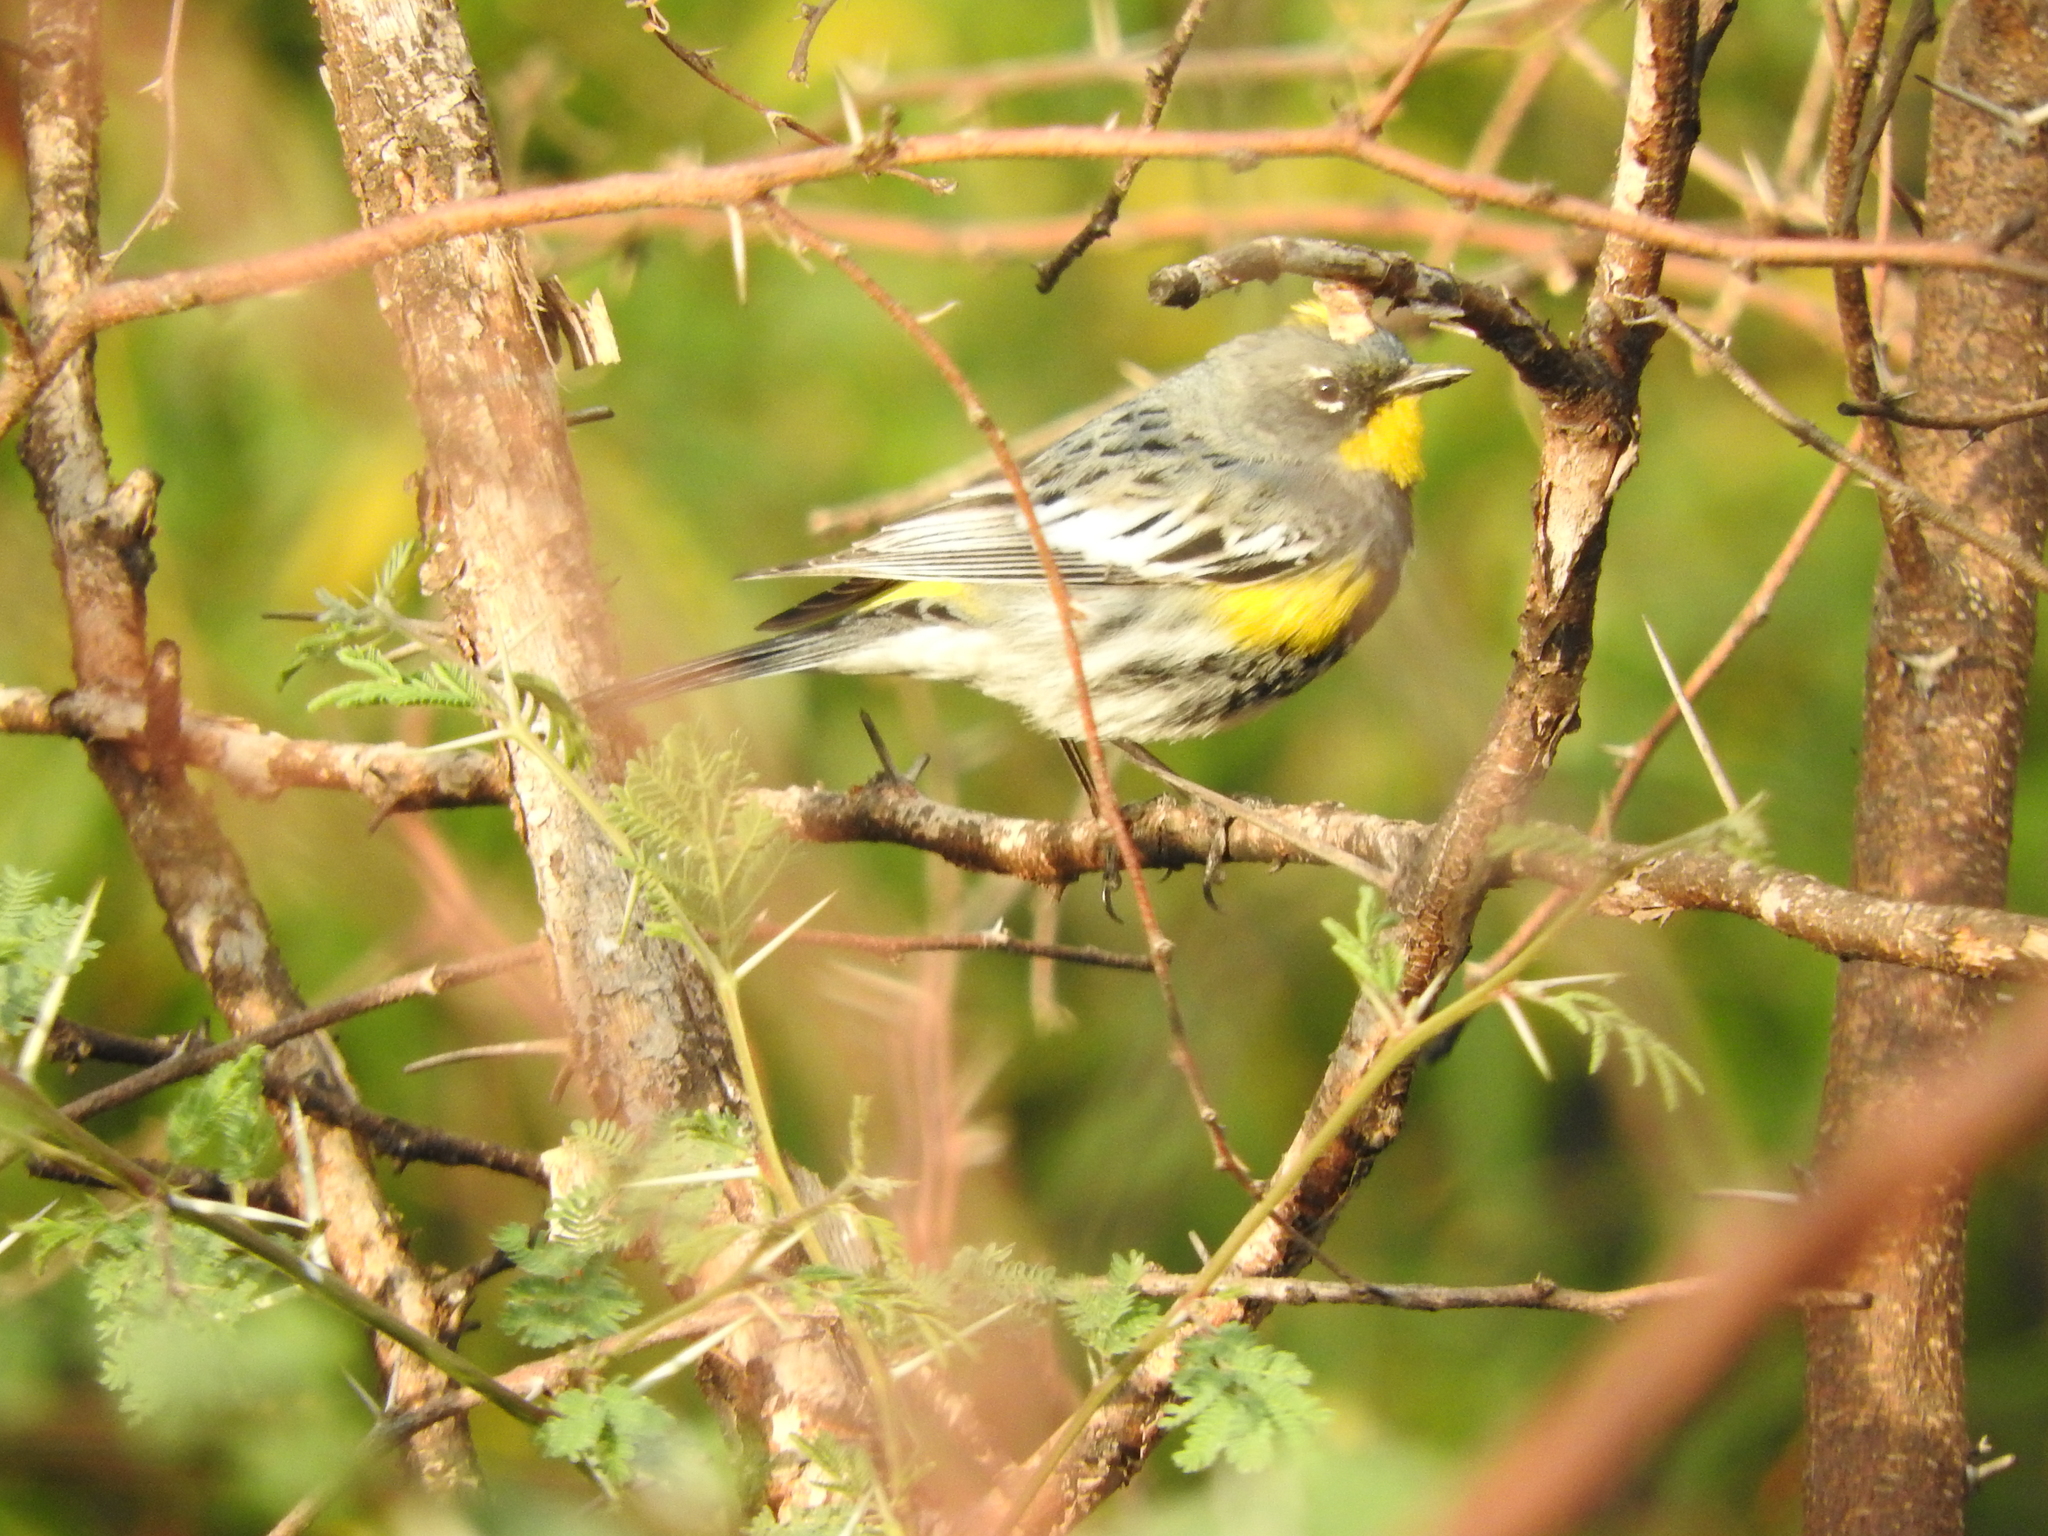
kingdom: Animalia
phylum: Chordata
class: Aves
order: Passeriformes
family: Parulidae
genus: Setophaga
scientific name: Setophaga coronata
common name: Myrtle warbler
